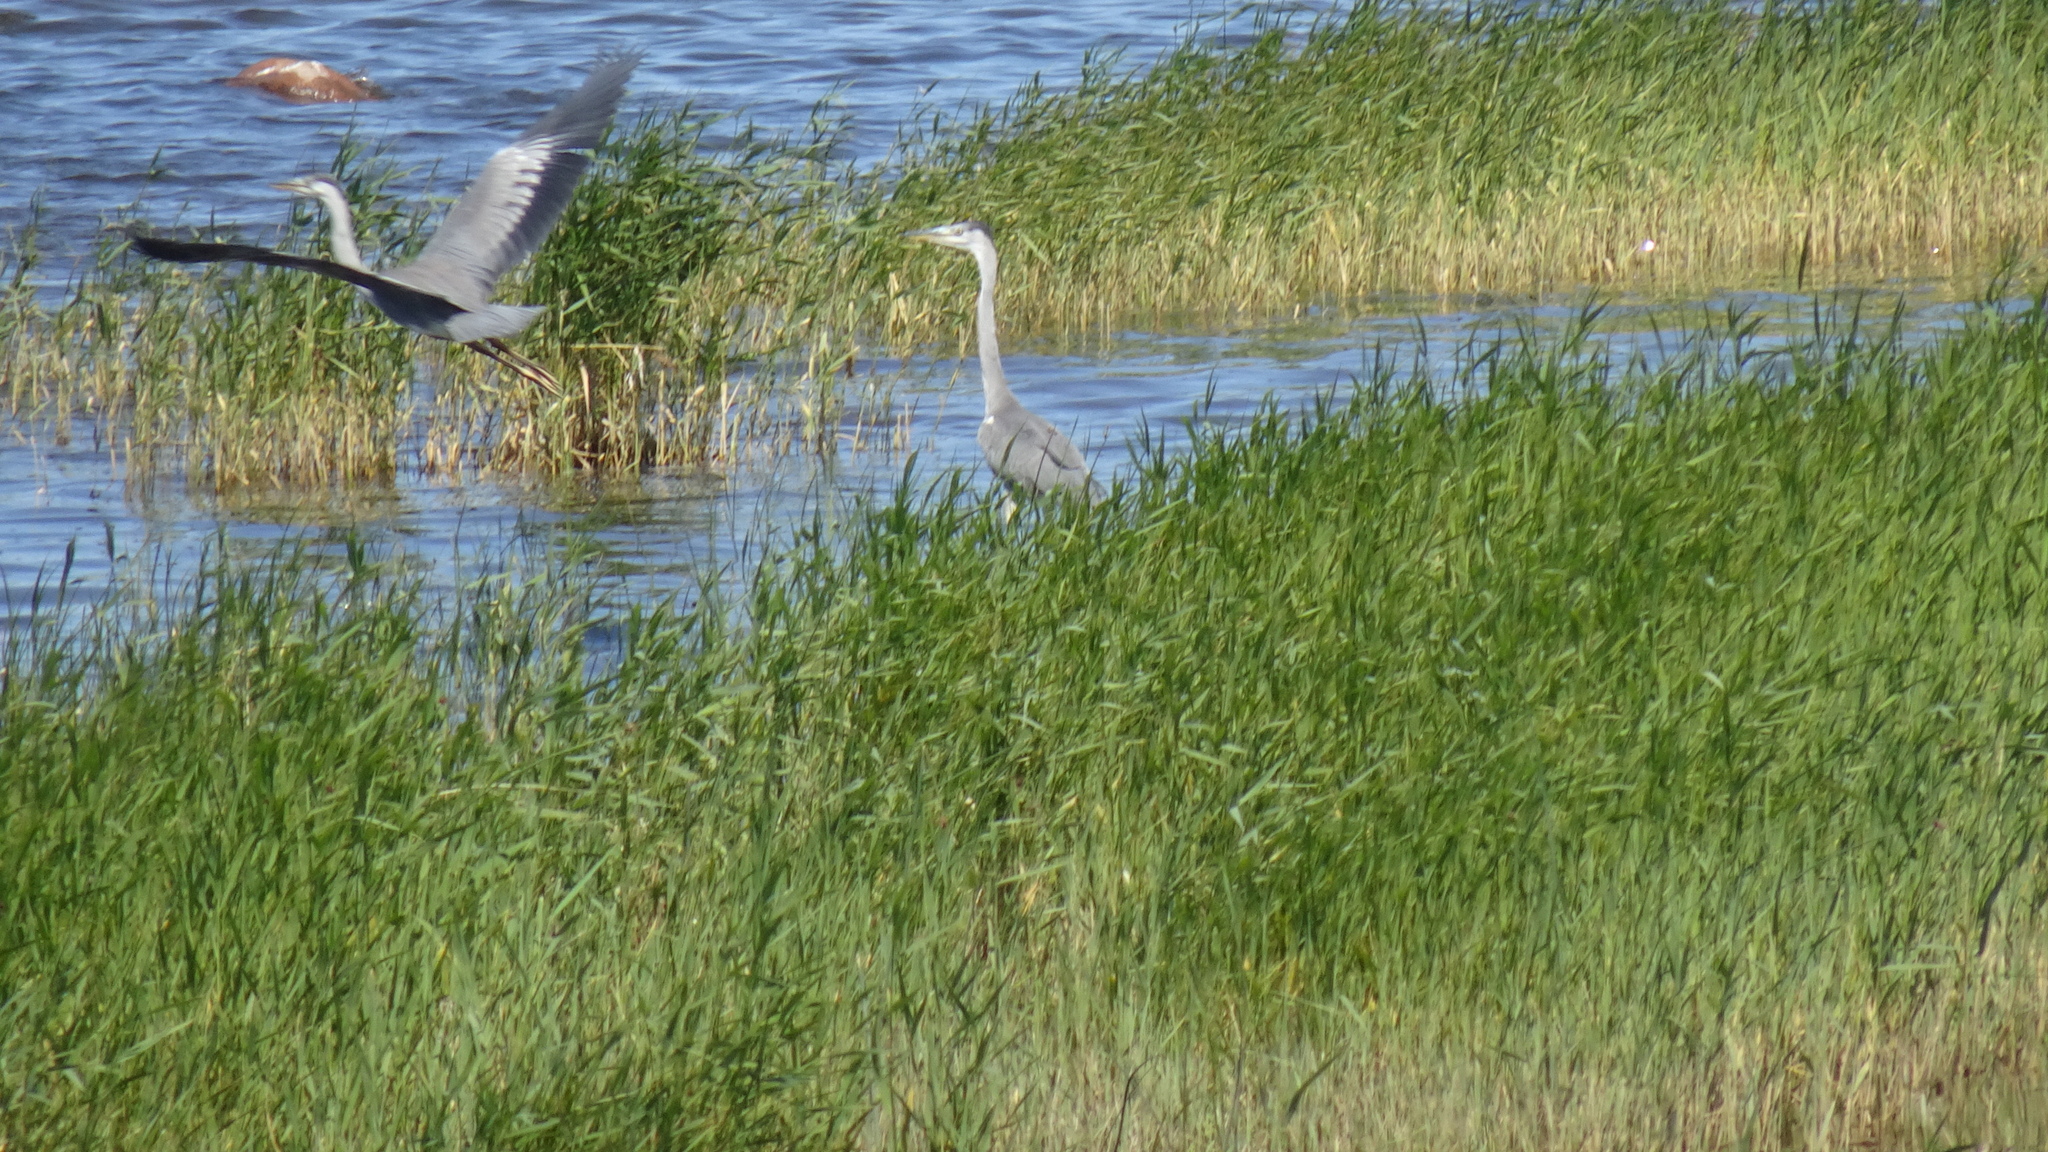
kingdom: Animalia
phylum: Chordata
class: Aves
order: Pelecaniformes
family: Ardeidae
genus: Ardea
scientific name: Ardea cinerea
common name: Grey heron
